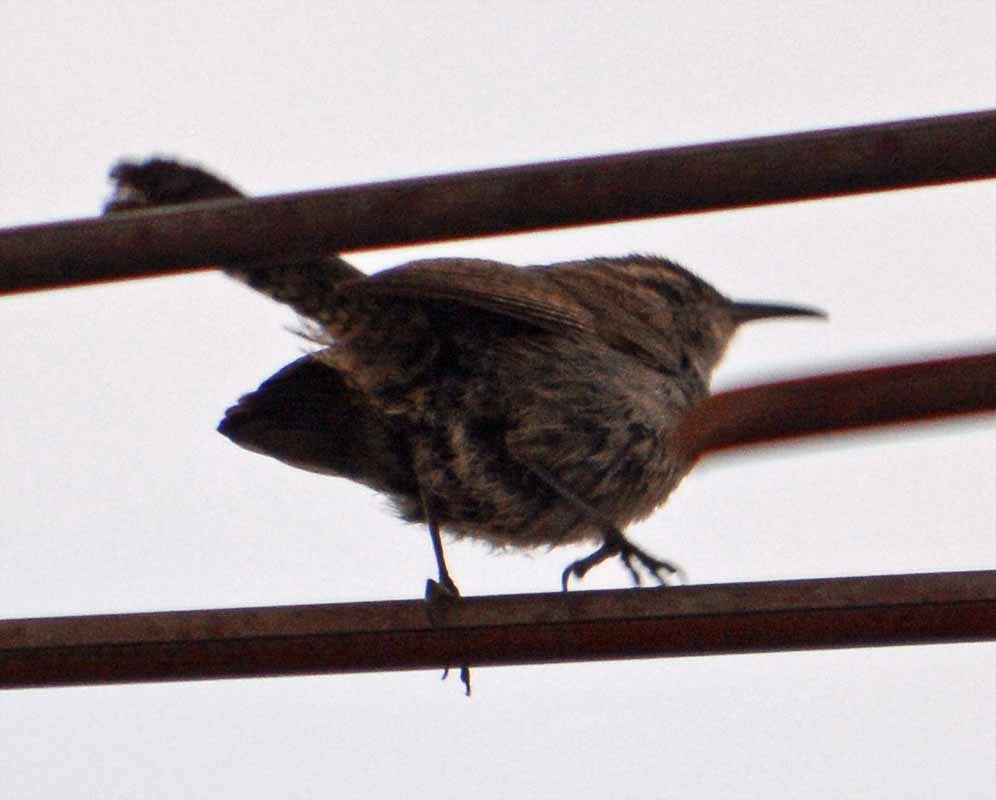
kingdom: Animalia
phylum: Chordata
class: Aves
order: Passeriformes
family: Troglodytidae
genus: Thryomanes
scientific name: Thryomanes bewickii
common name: Bewick's wren
